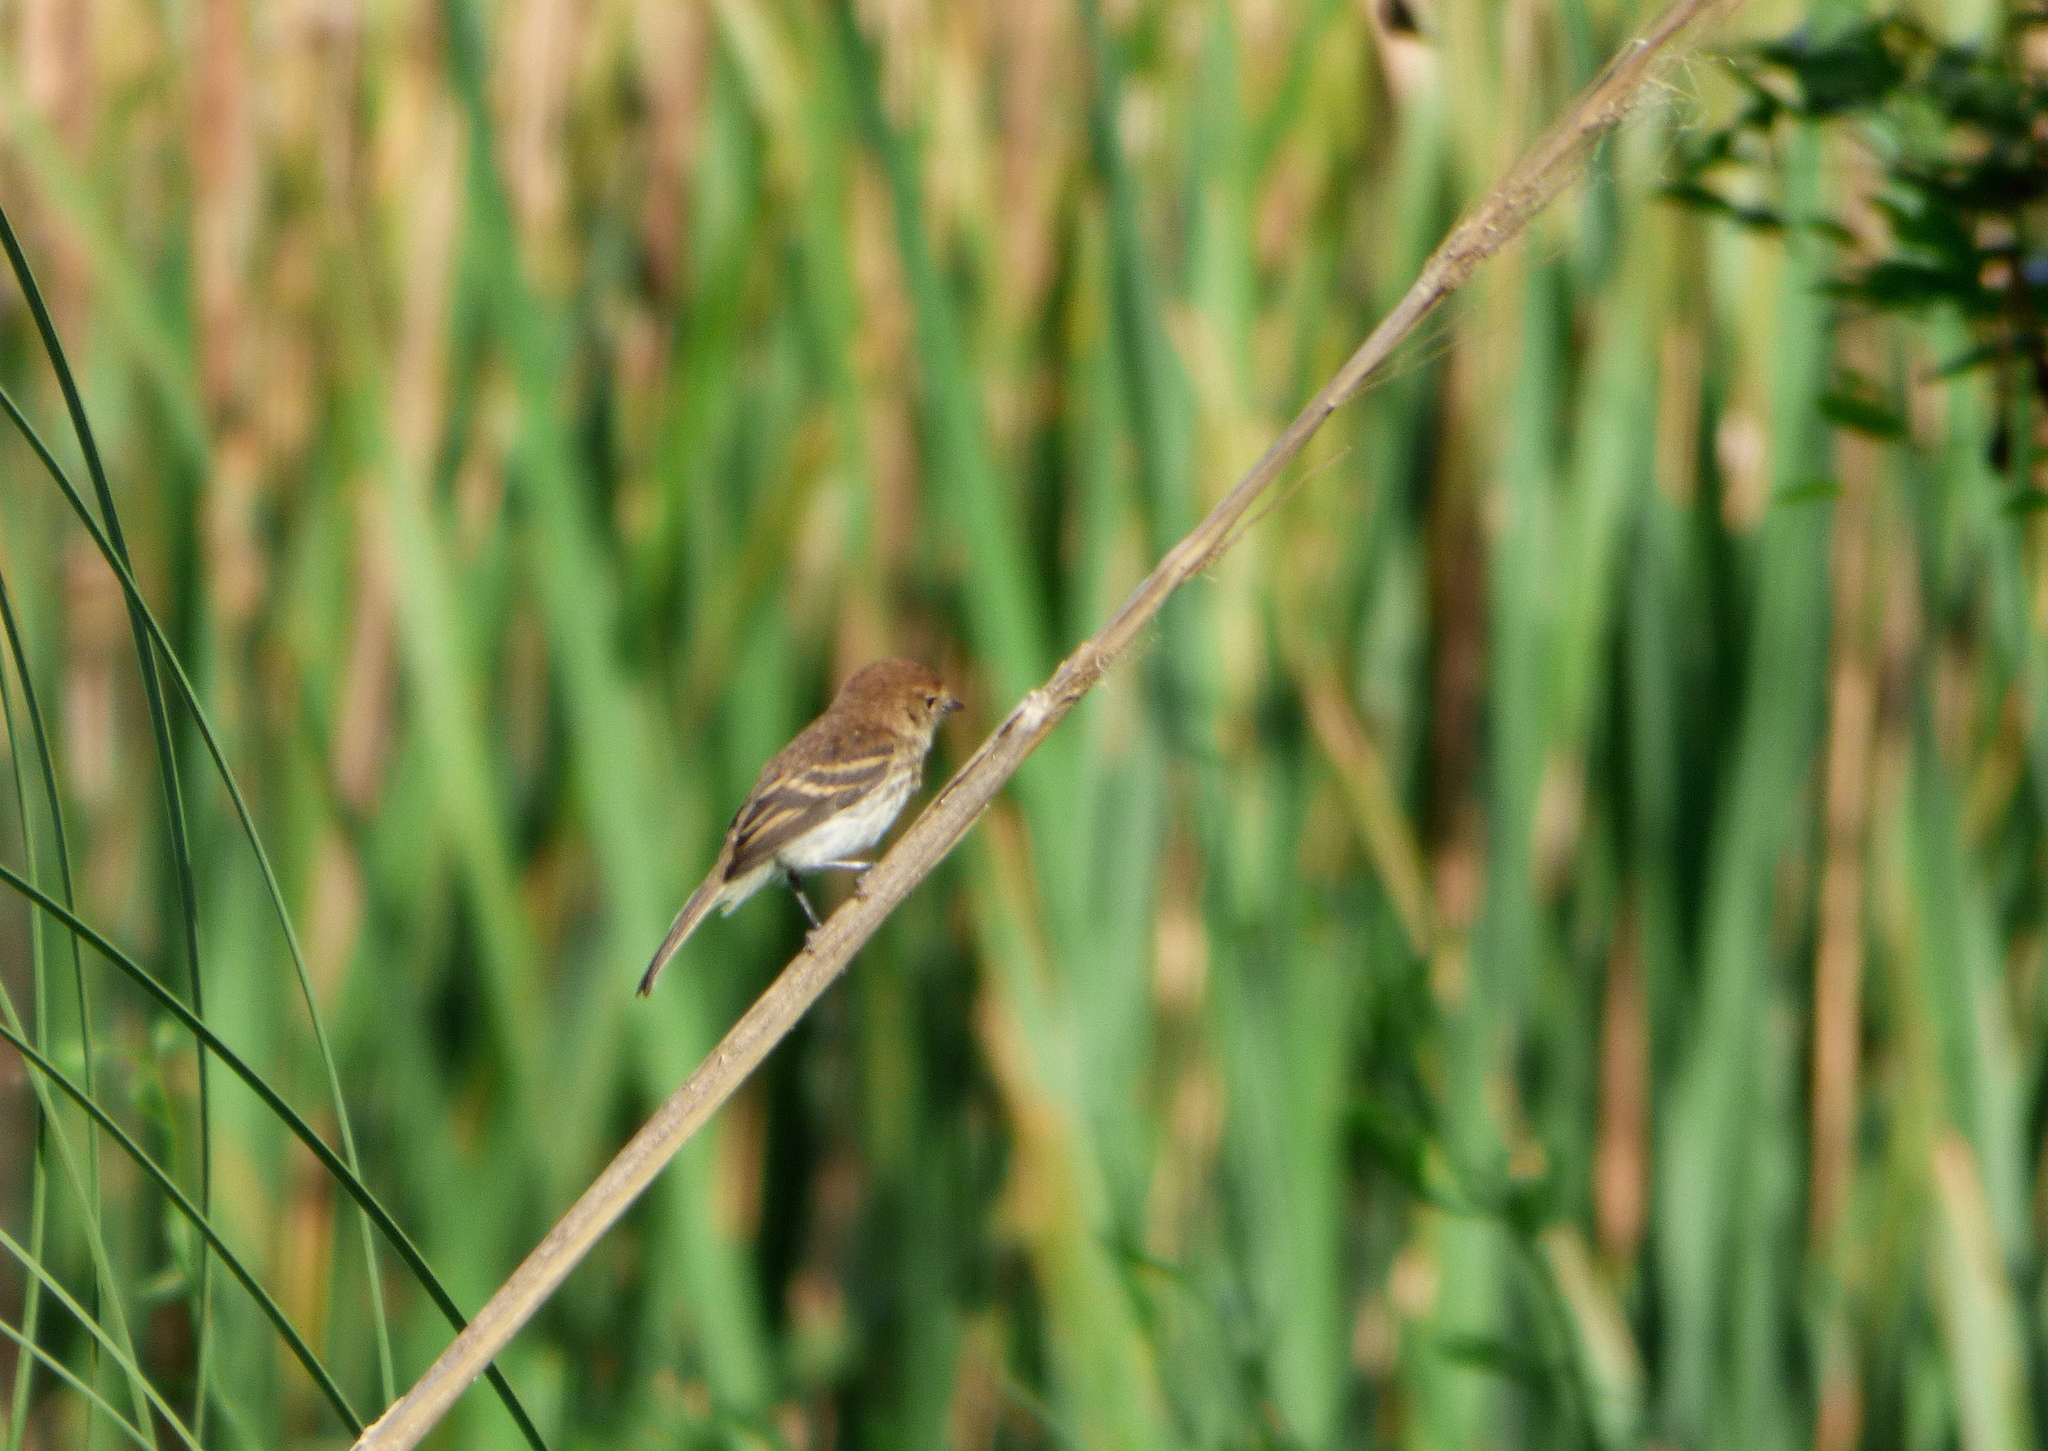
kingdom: Animalia
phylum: Chordata
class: Aves
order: Passeriformes
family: Tyrannidae
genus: Myiophobus
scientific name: Myiophobus fasciatus
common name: Bran-colored flycatcher
